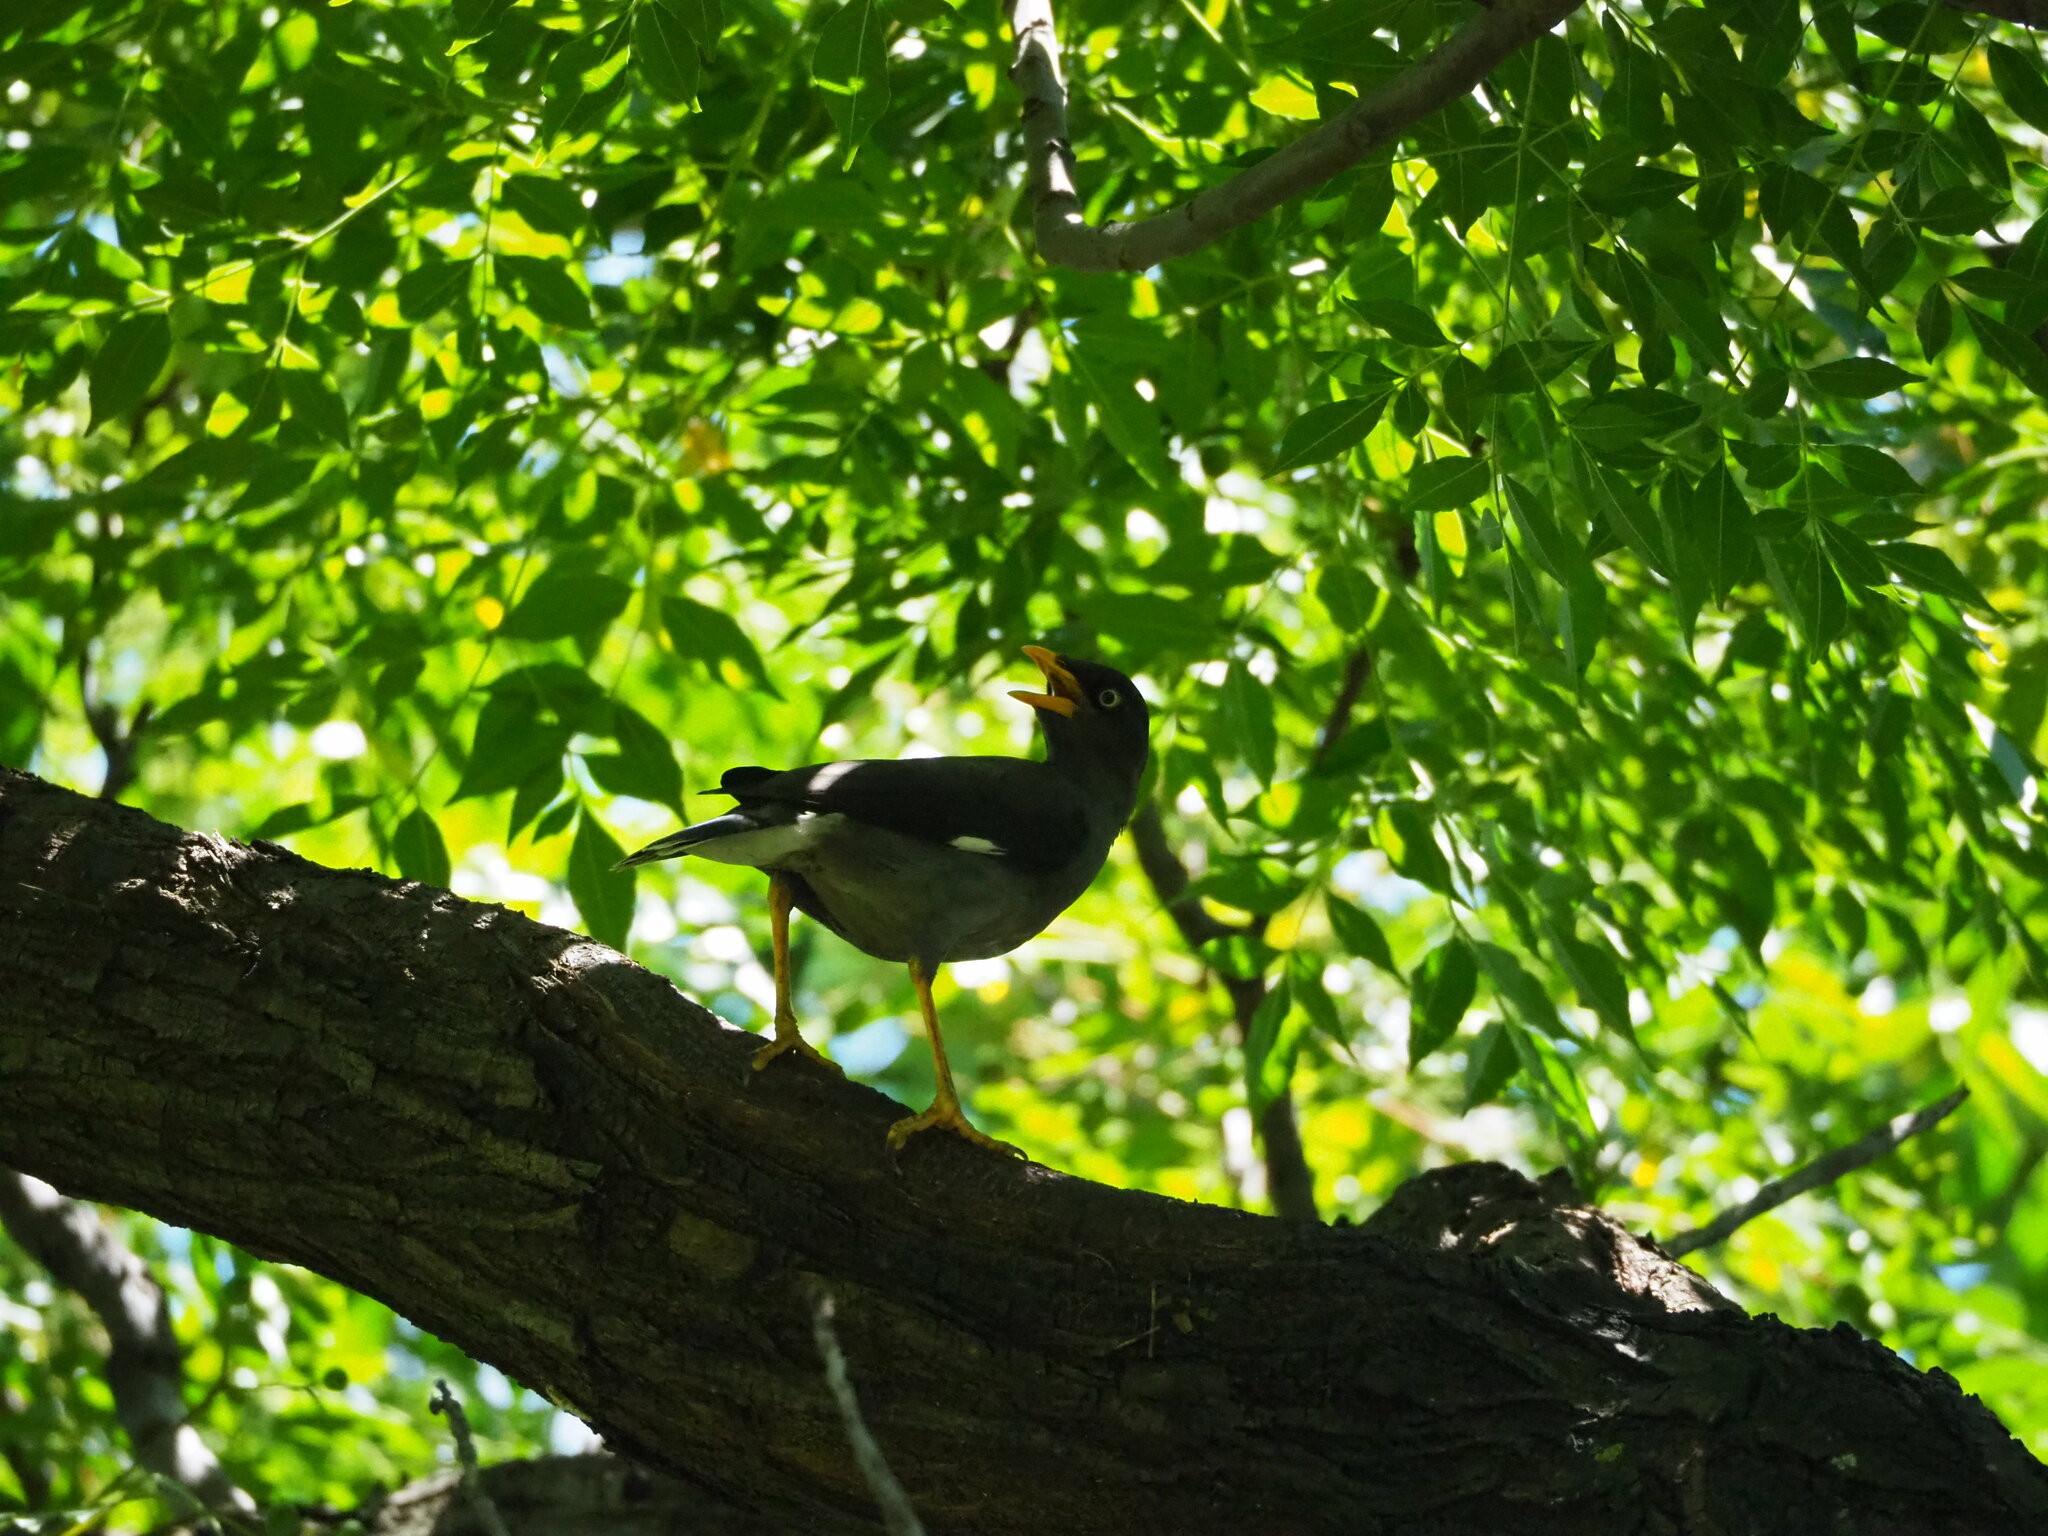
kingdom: Animalia
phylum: Chordata
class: Aves
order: Passeriformes
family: Sturnidae
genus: Acridotheres
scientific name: Acridotheres javanicus
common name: Javan myna
